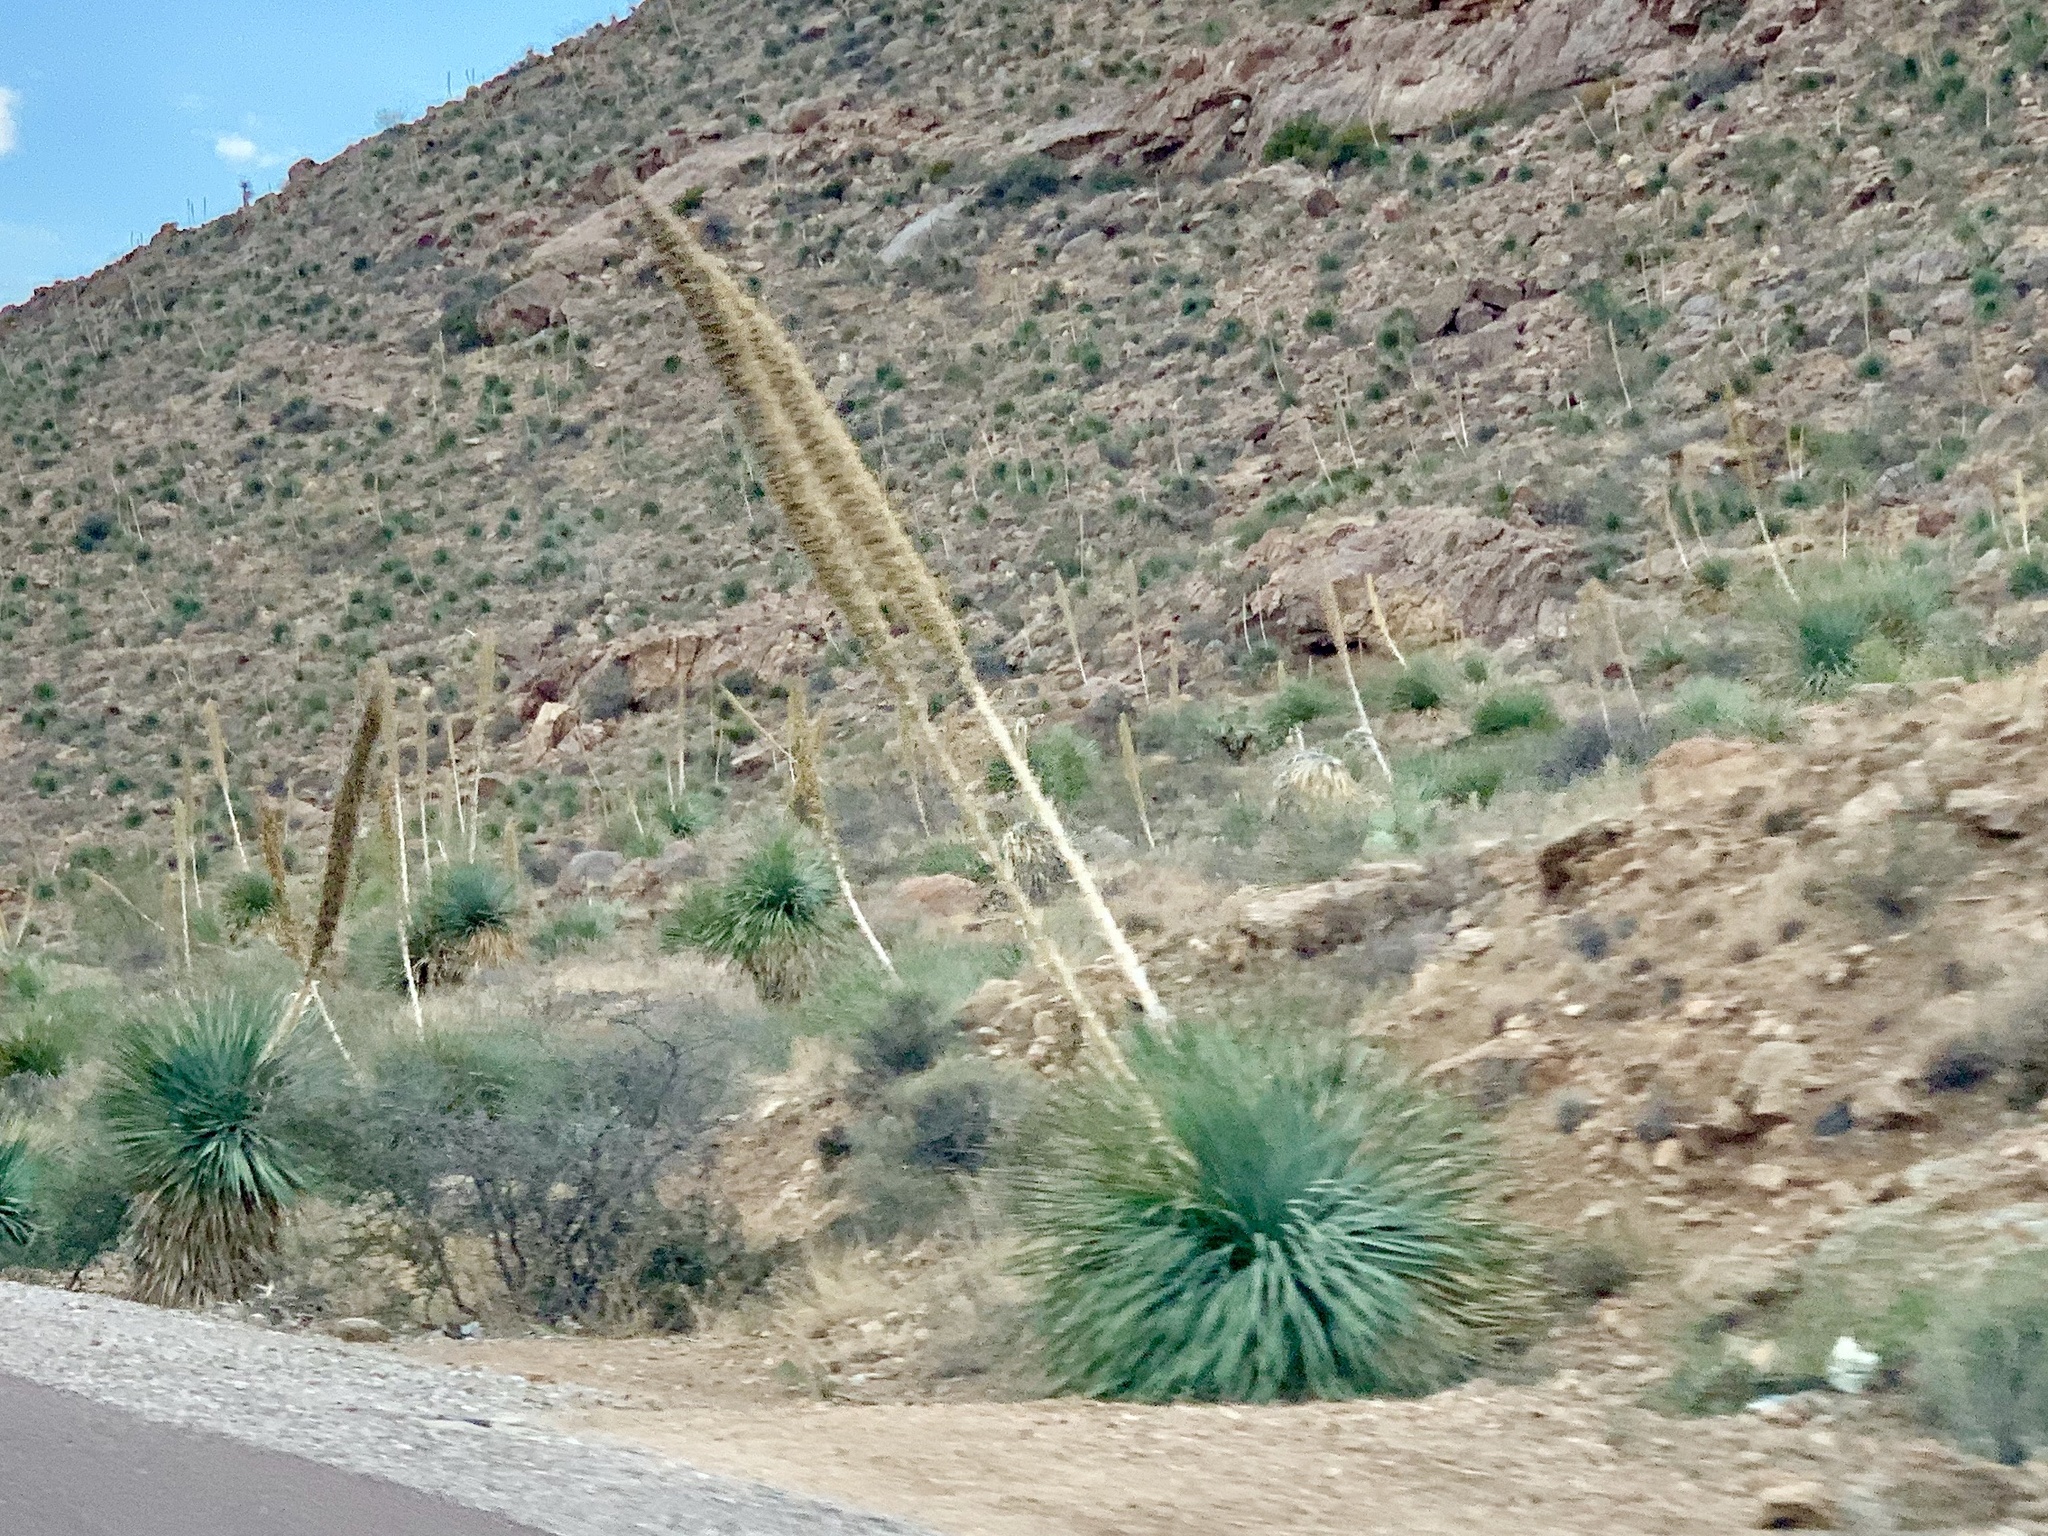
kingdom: Plantae
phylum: Tracheophyta
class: Liliopsida
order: Asparagales
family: Asparagaceae
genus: Dasylirion
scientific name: Dasylirion wheeleri
